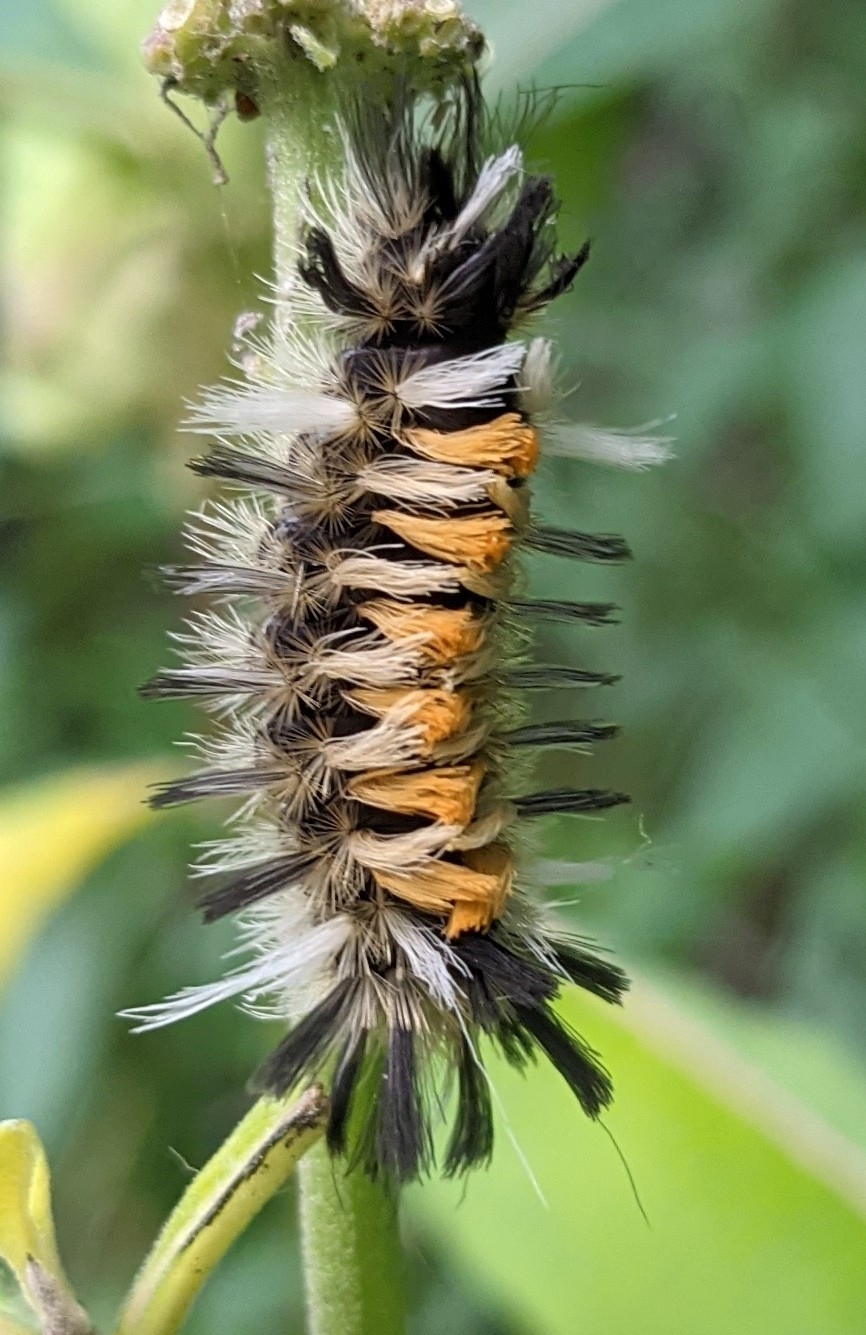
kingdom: Animalia
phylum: Arthropoda
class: Insecta
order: Lepidoptera
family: Erebidae
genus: Euchaetes
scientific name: Euchaetes egle
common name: Milkweed tussock moth
